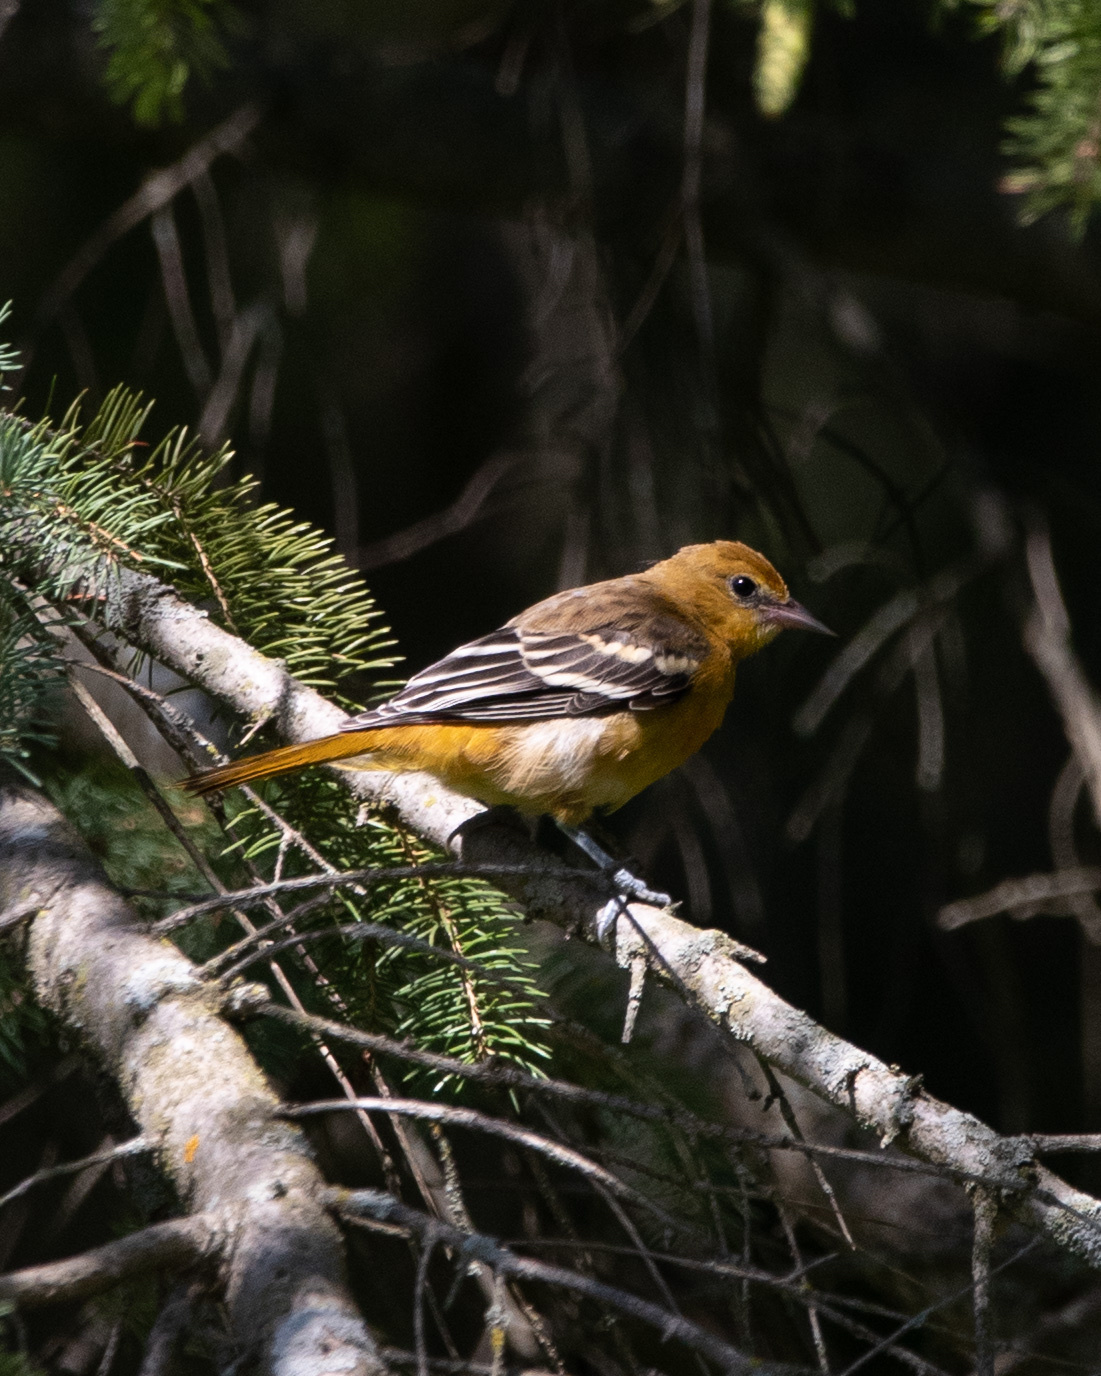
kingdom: Animalia
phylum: Chordata
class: Aves
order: Passeriformes
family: Icteridae
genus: Icterus
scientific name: Icterus galbula
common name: Baltimore oriole
